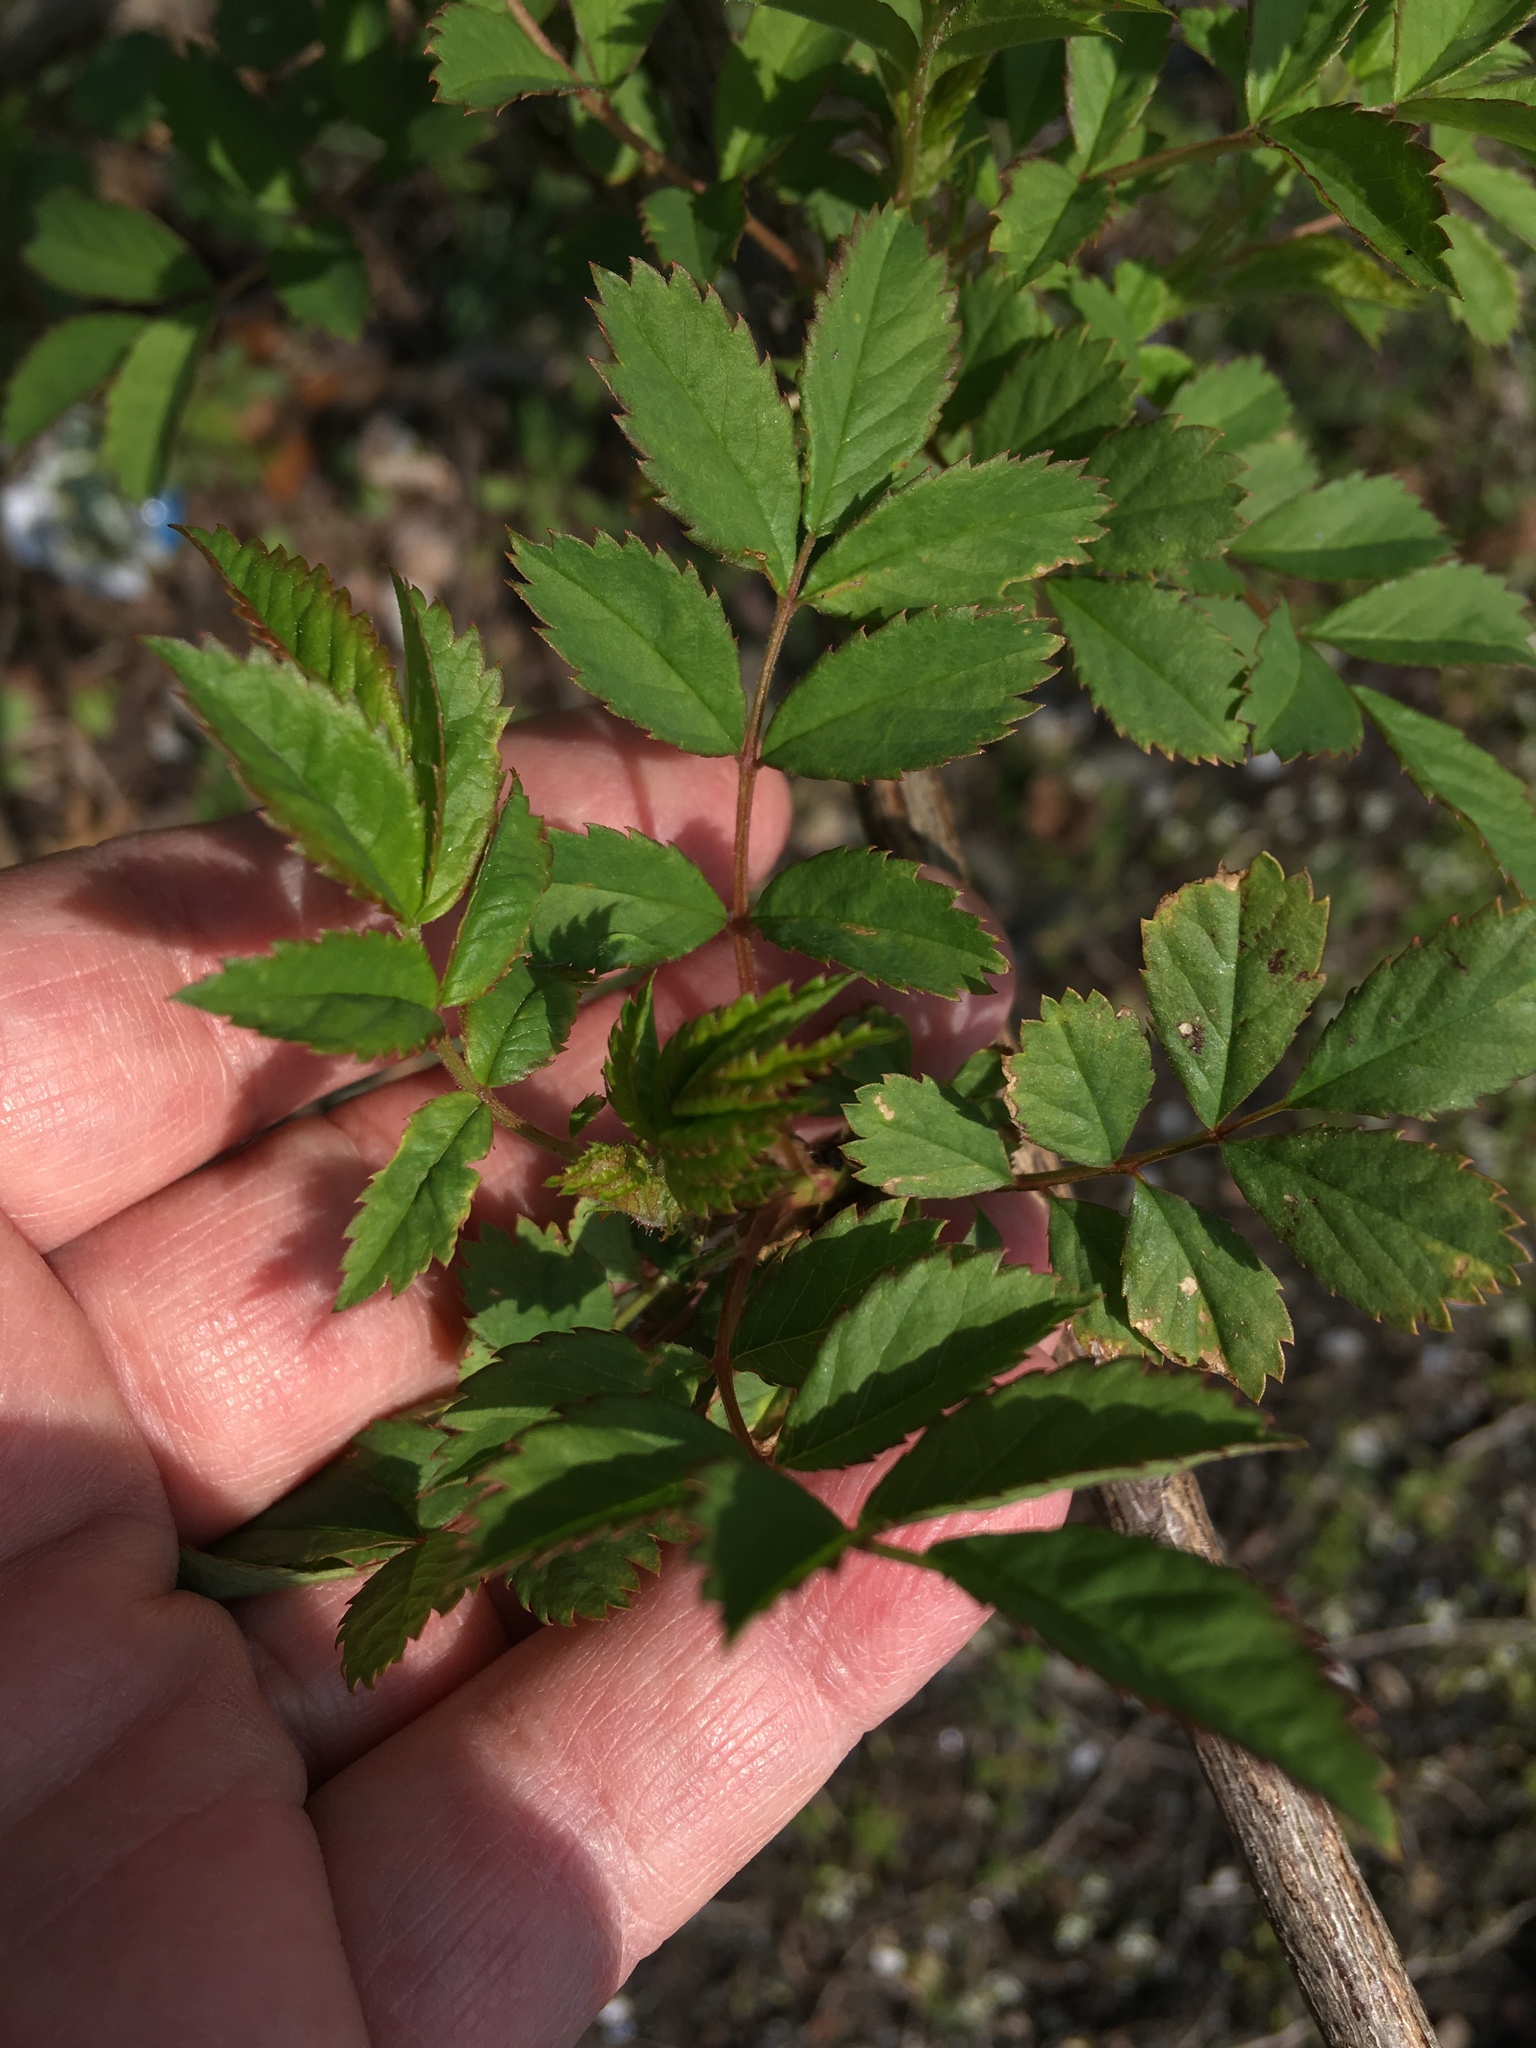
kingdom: Plantae
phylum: Tracheophyta
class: Magnoliopsida
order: Rosales
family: Rosaceae
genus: Rosa
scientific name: Rosa multiflora
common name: Multiflora rose
